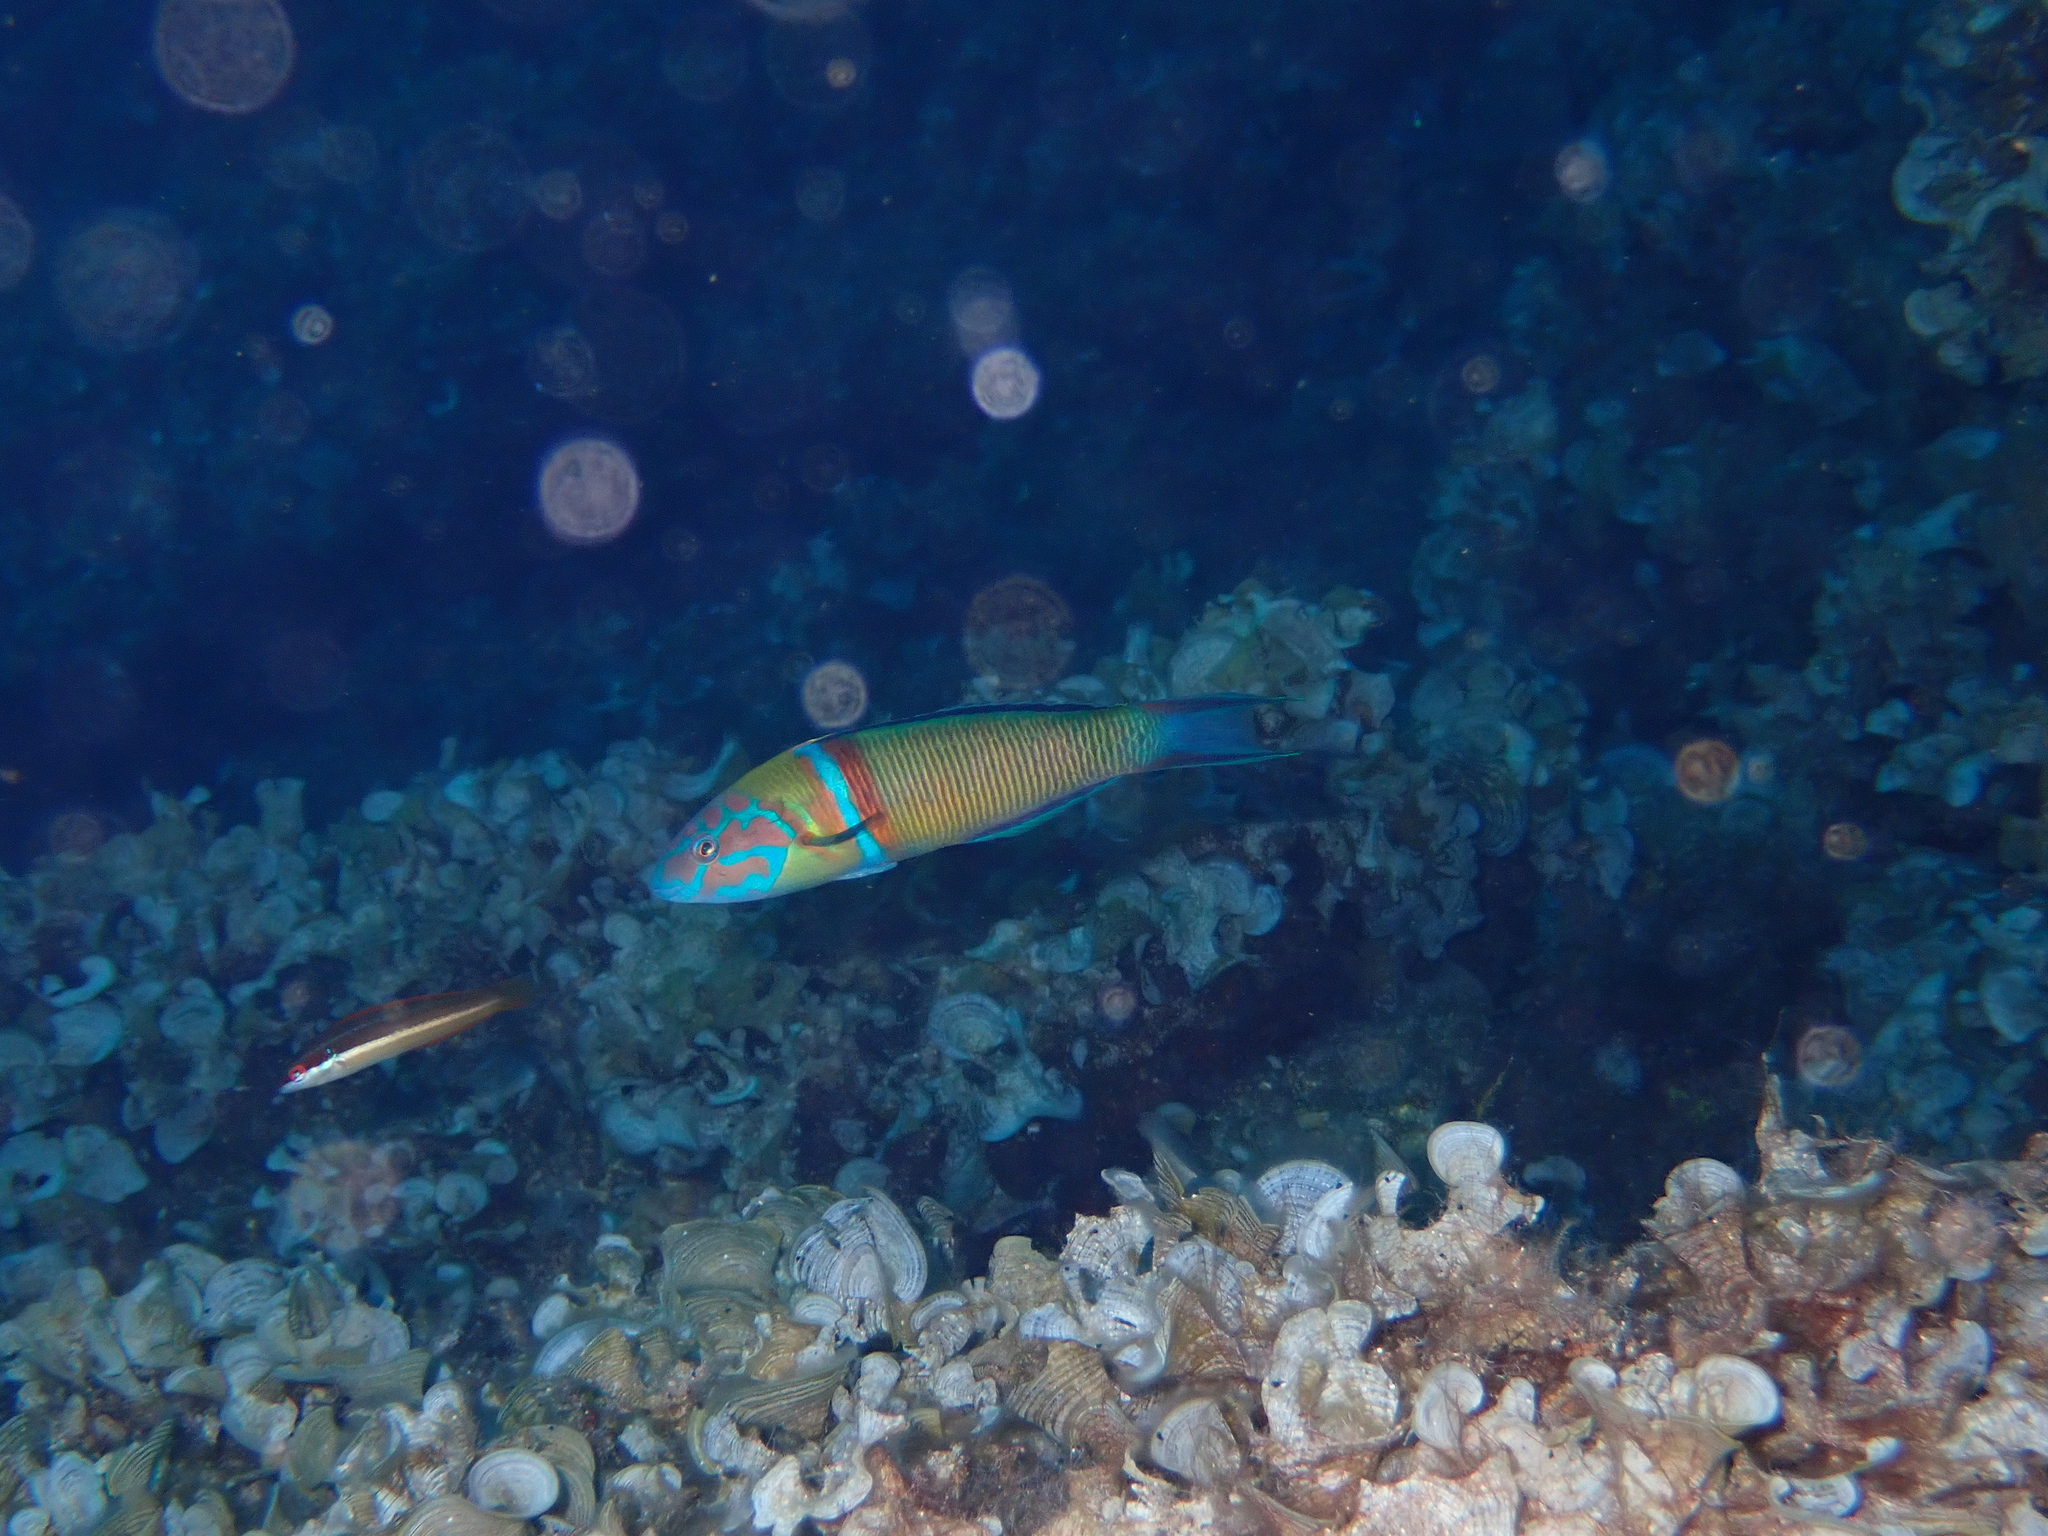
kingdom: Animalia
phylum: Chordata
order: Perciformes
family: Labridae
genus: Thalassoma
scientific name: Thalassoma pavo
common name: Ornate wrasse
